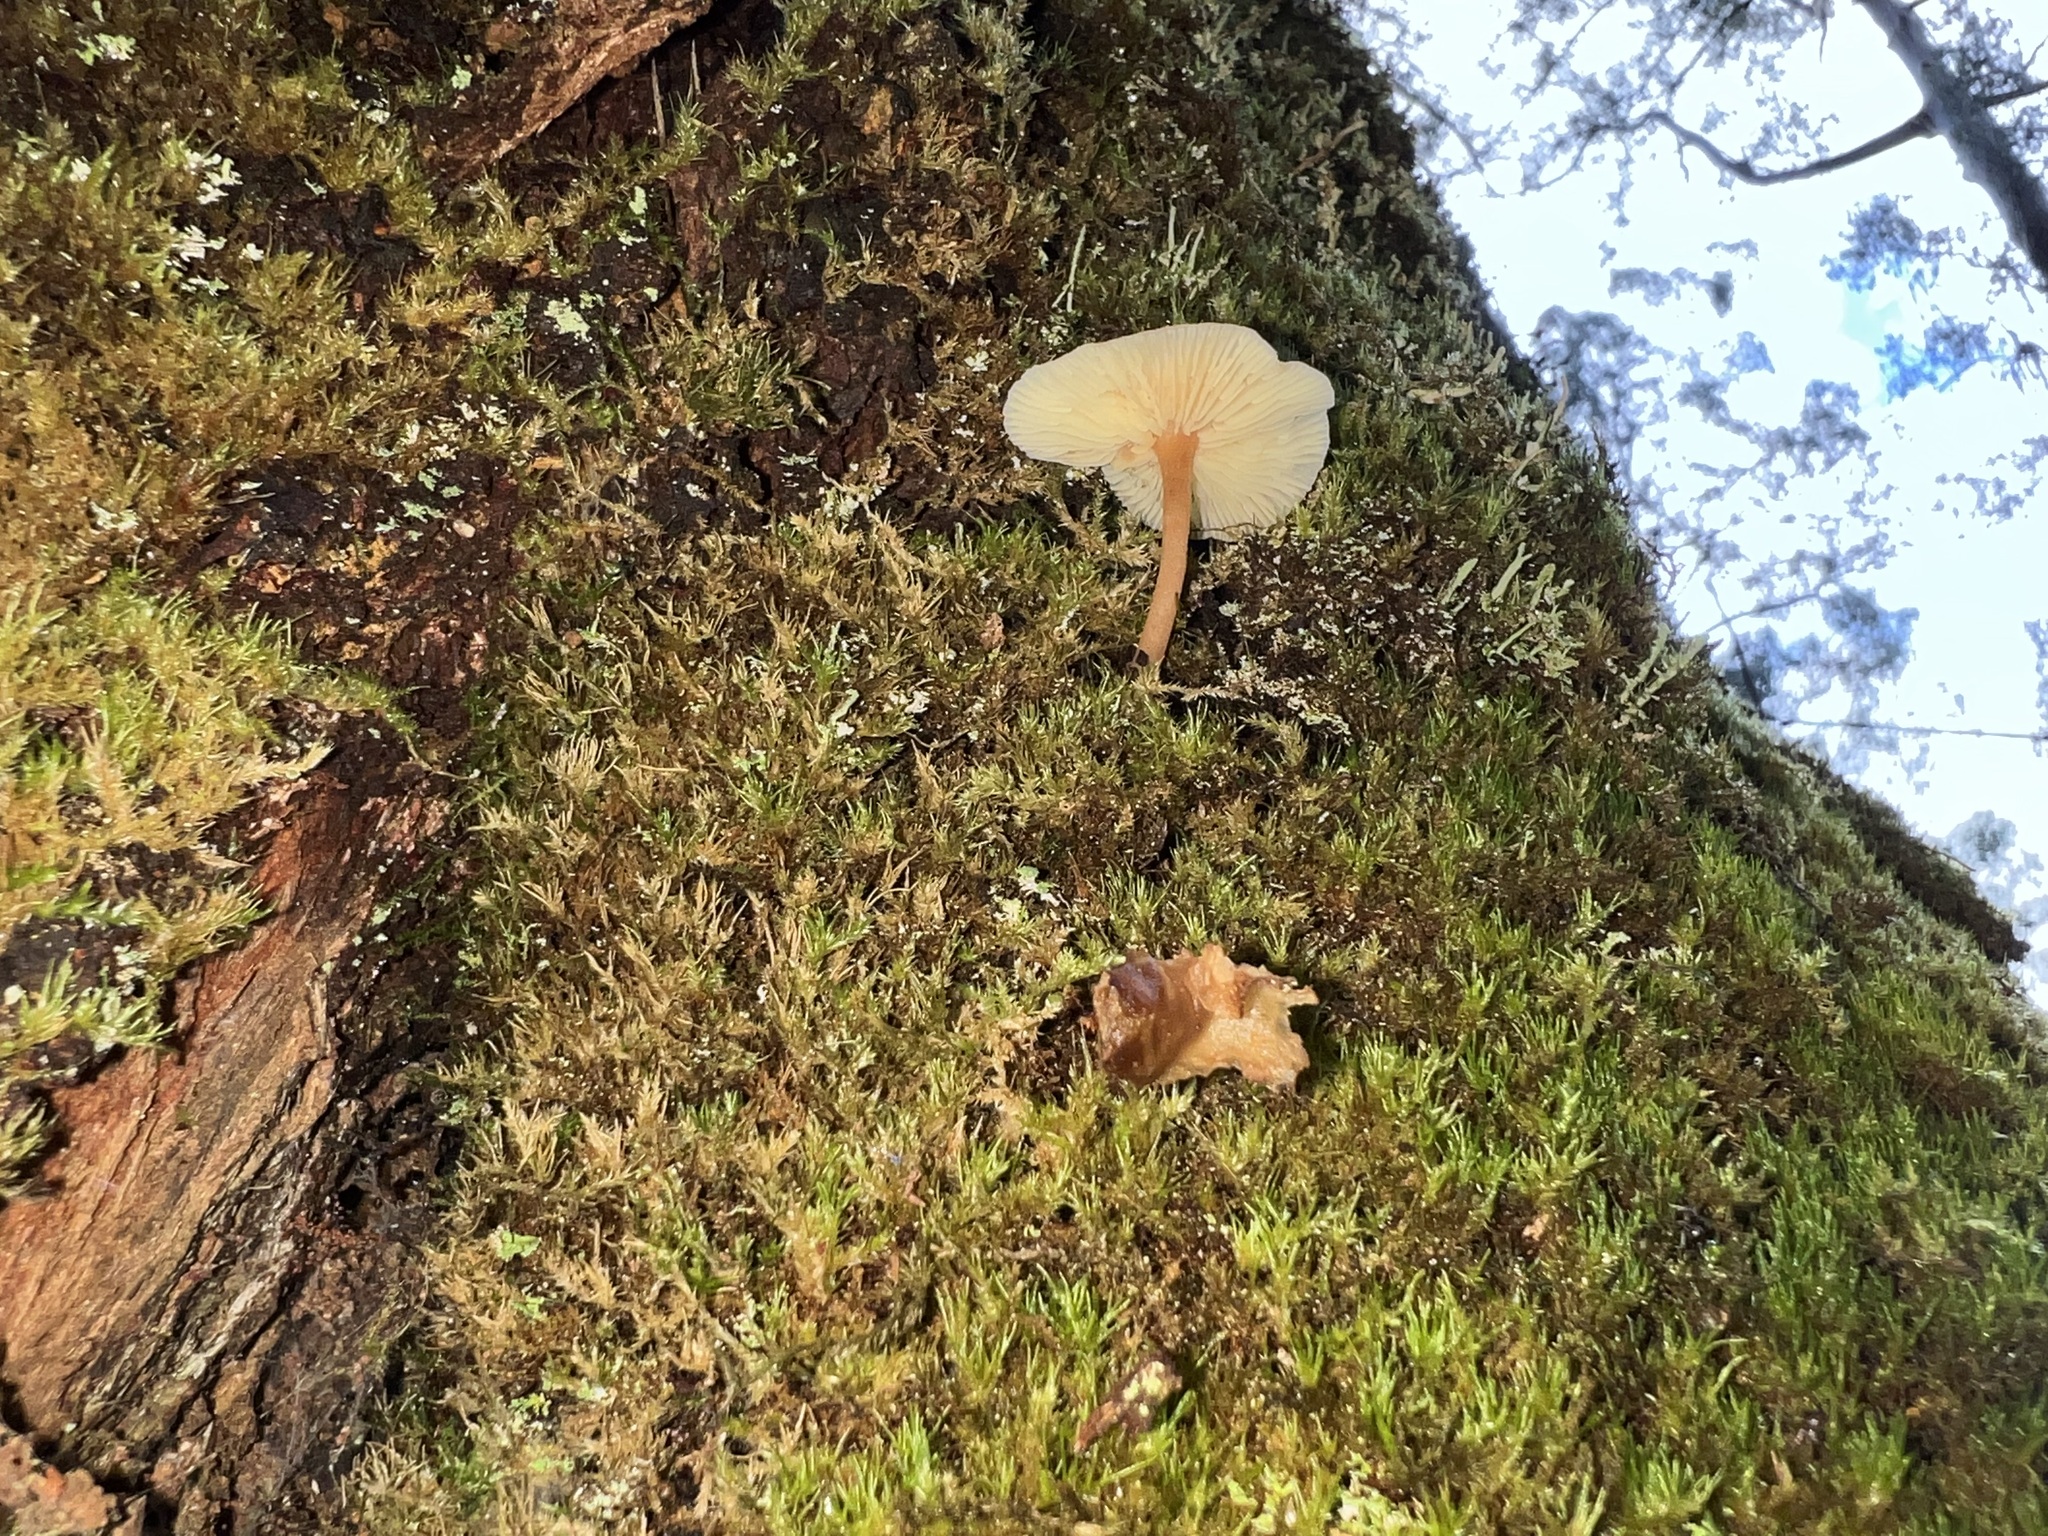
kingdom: Fungi
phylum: Basidiomycota
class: Agaricomycetes
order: Auriculariales
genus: Pseudohydnum
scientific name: Pseudohydnum gelatinosum
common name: Jelly tongue
